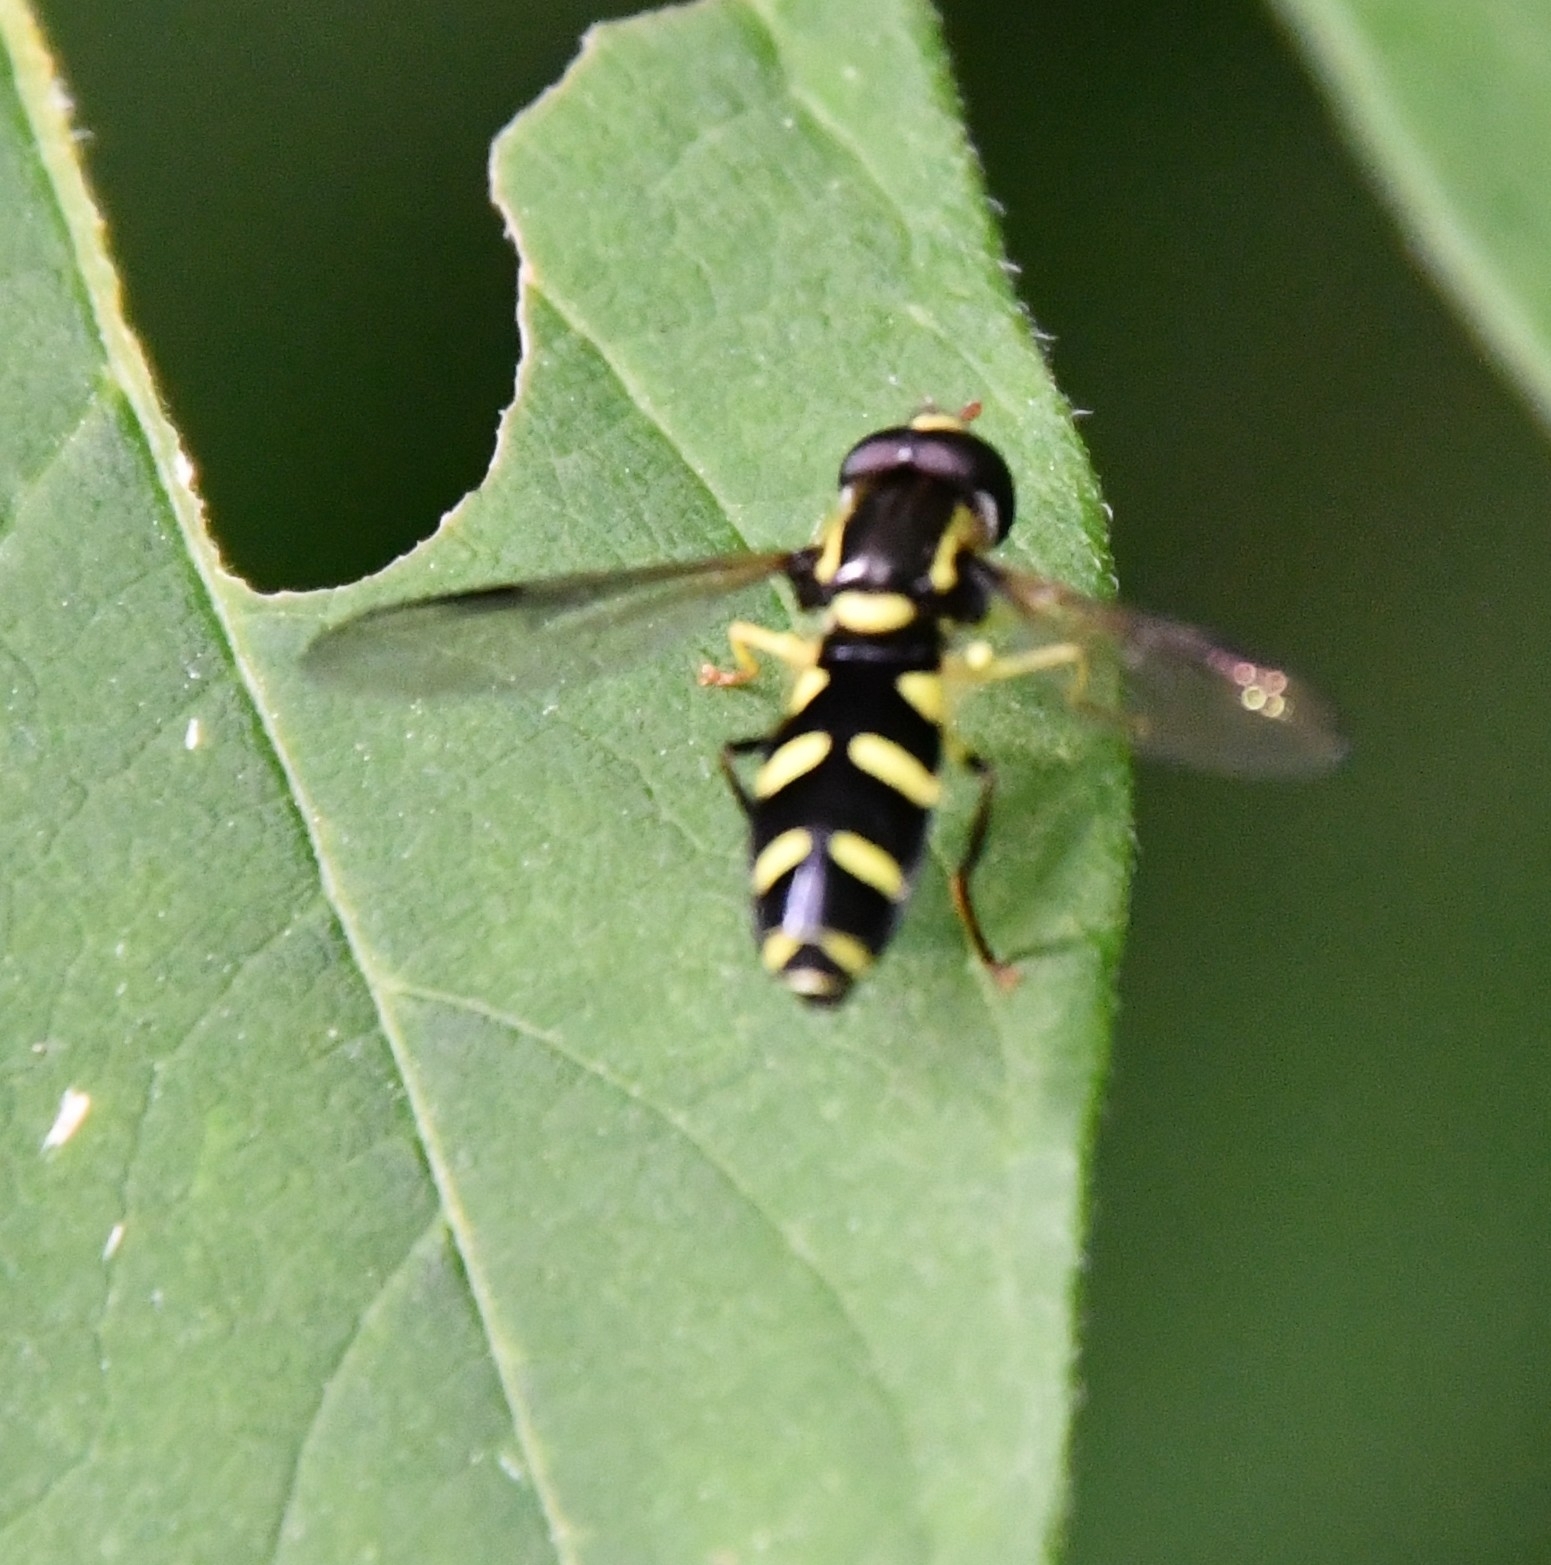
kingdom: Animalia
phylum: Arthropoda
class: Insecta
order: Diptera
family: Syrphidae
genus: Philhelius
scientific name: Philhelius dives
